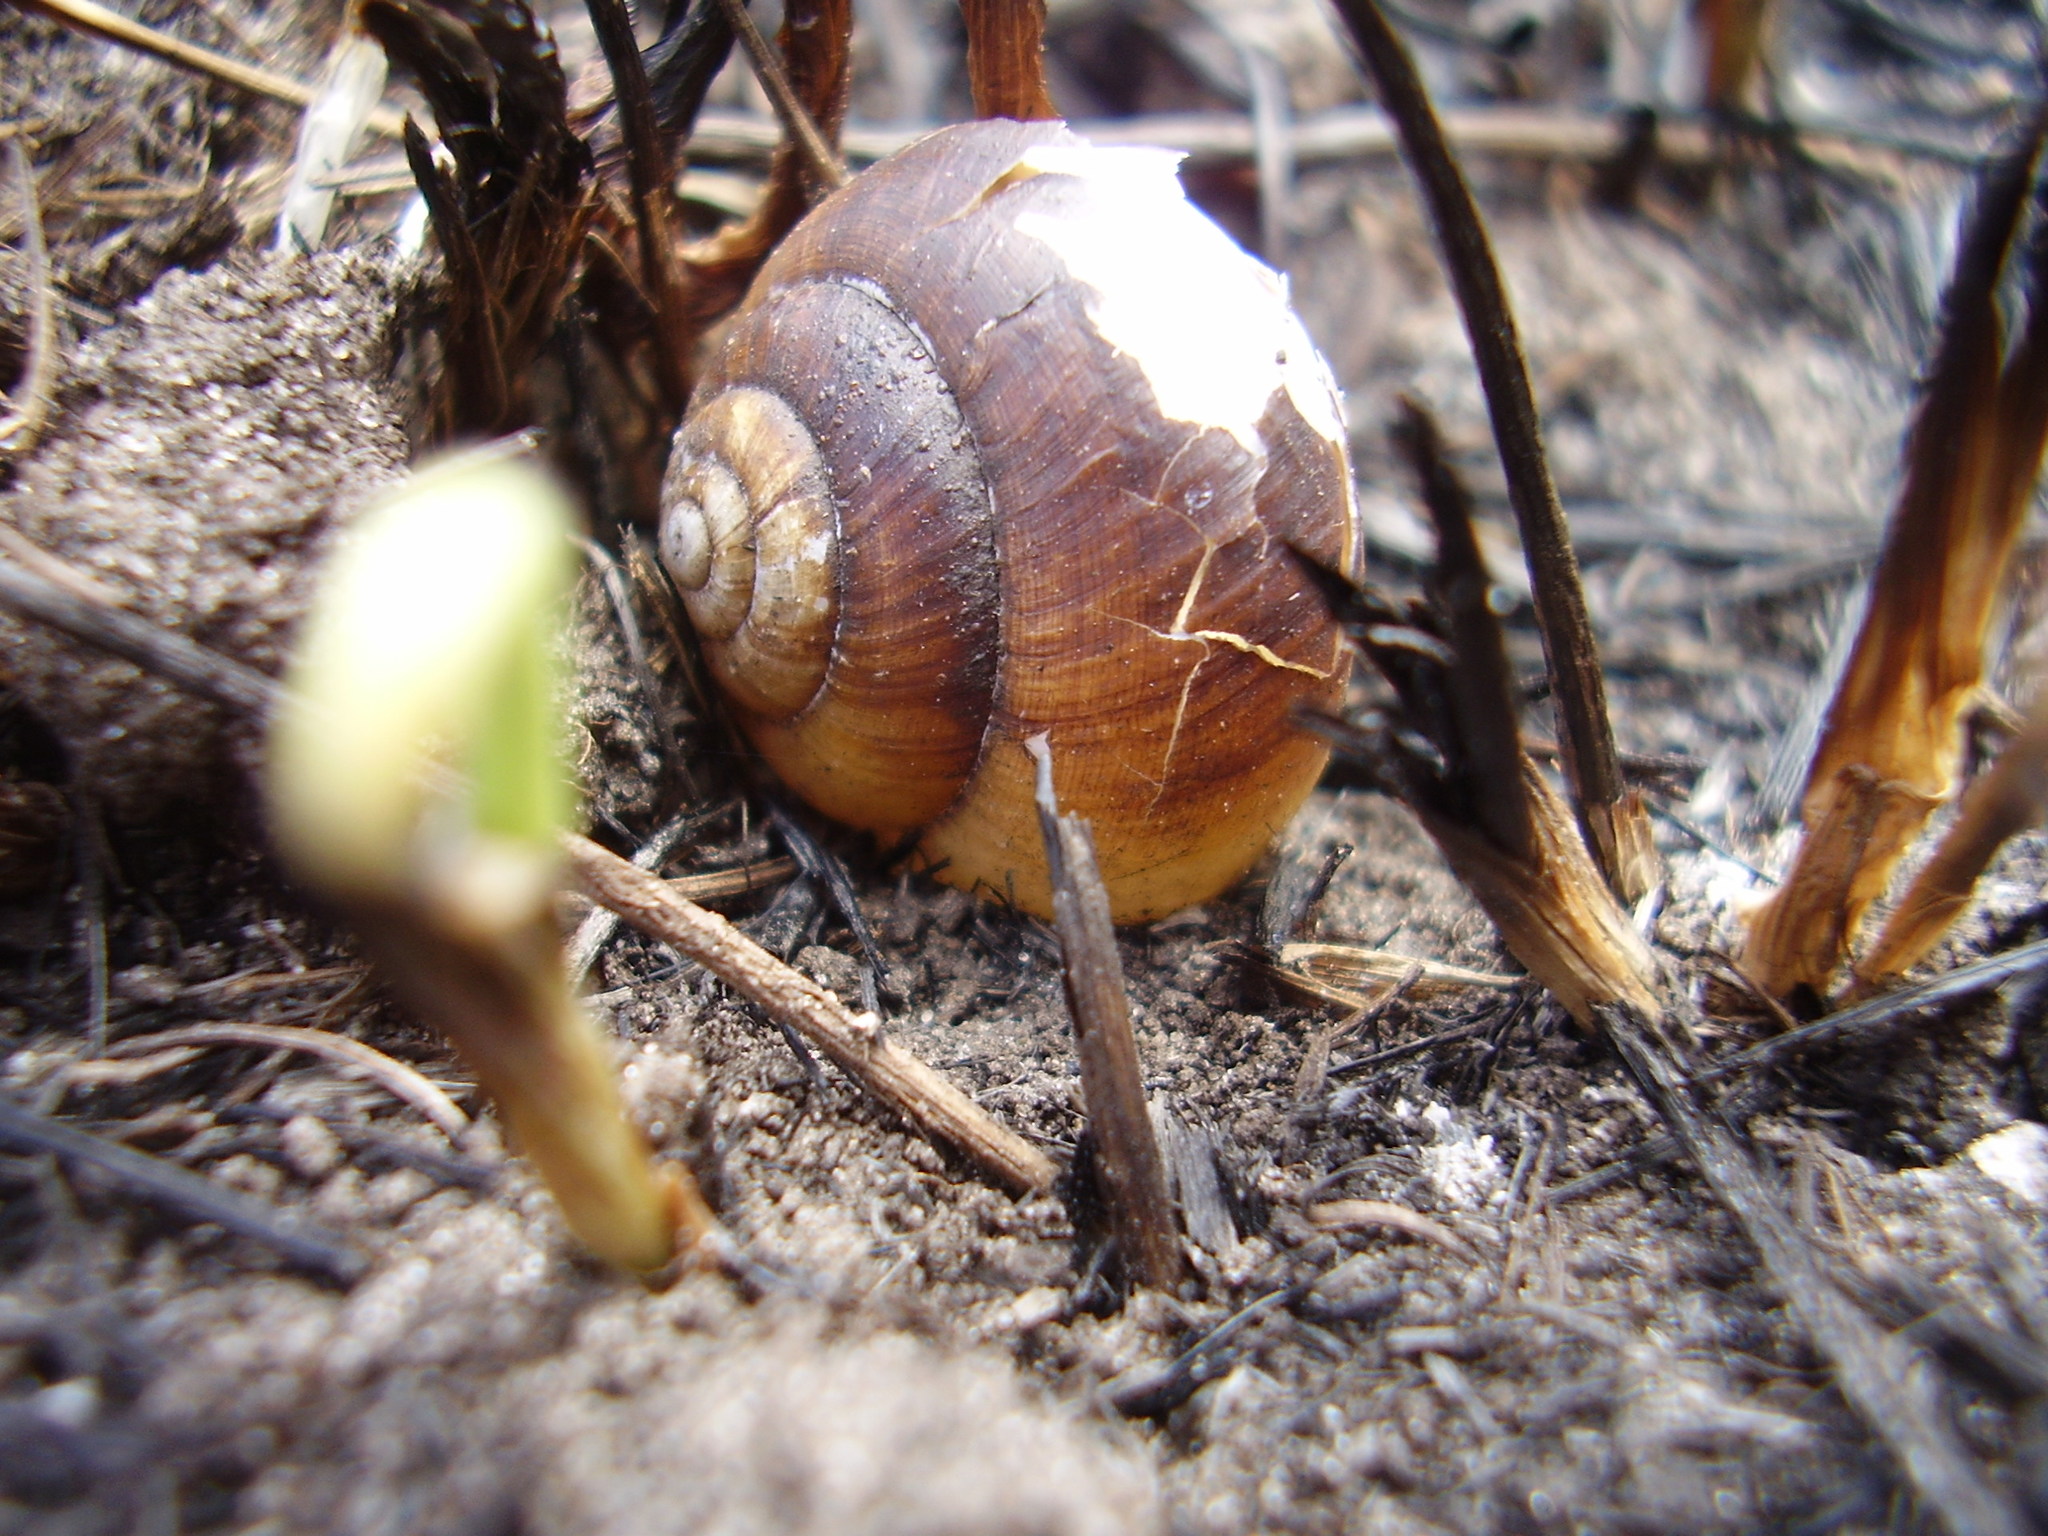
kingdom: Animalia
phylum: Mollusca
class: Gastropoda
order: Stylommatophora
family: Camaenidae
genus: Fruticicola
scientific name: Fruticicola fruticum
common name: Bush snail
